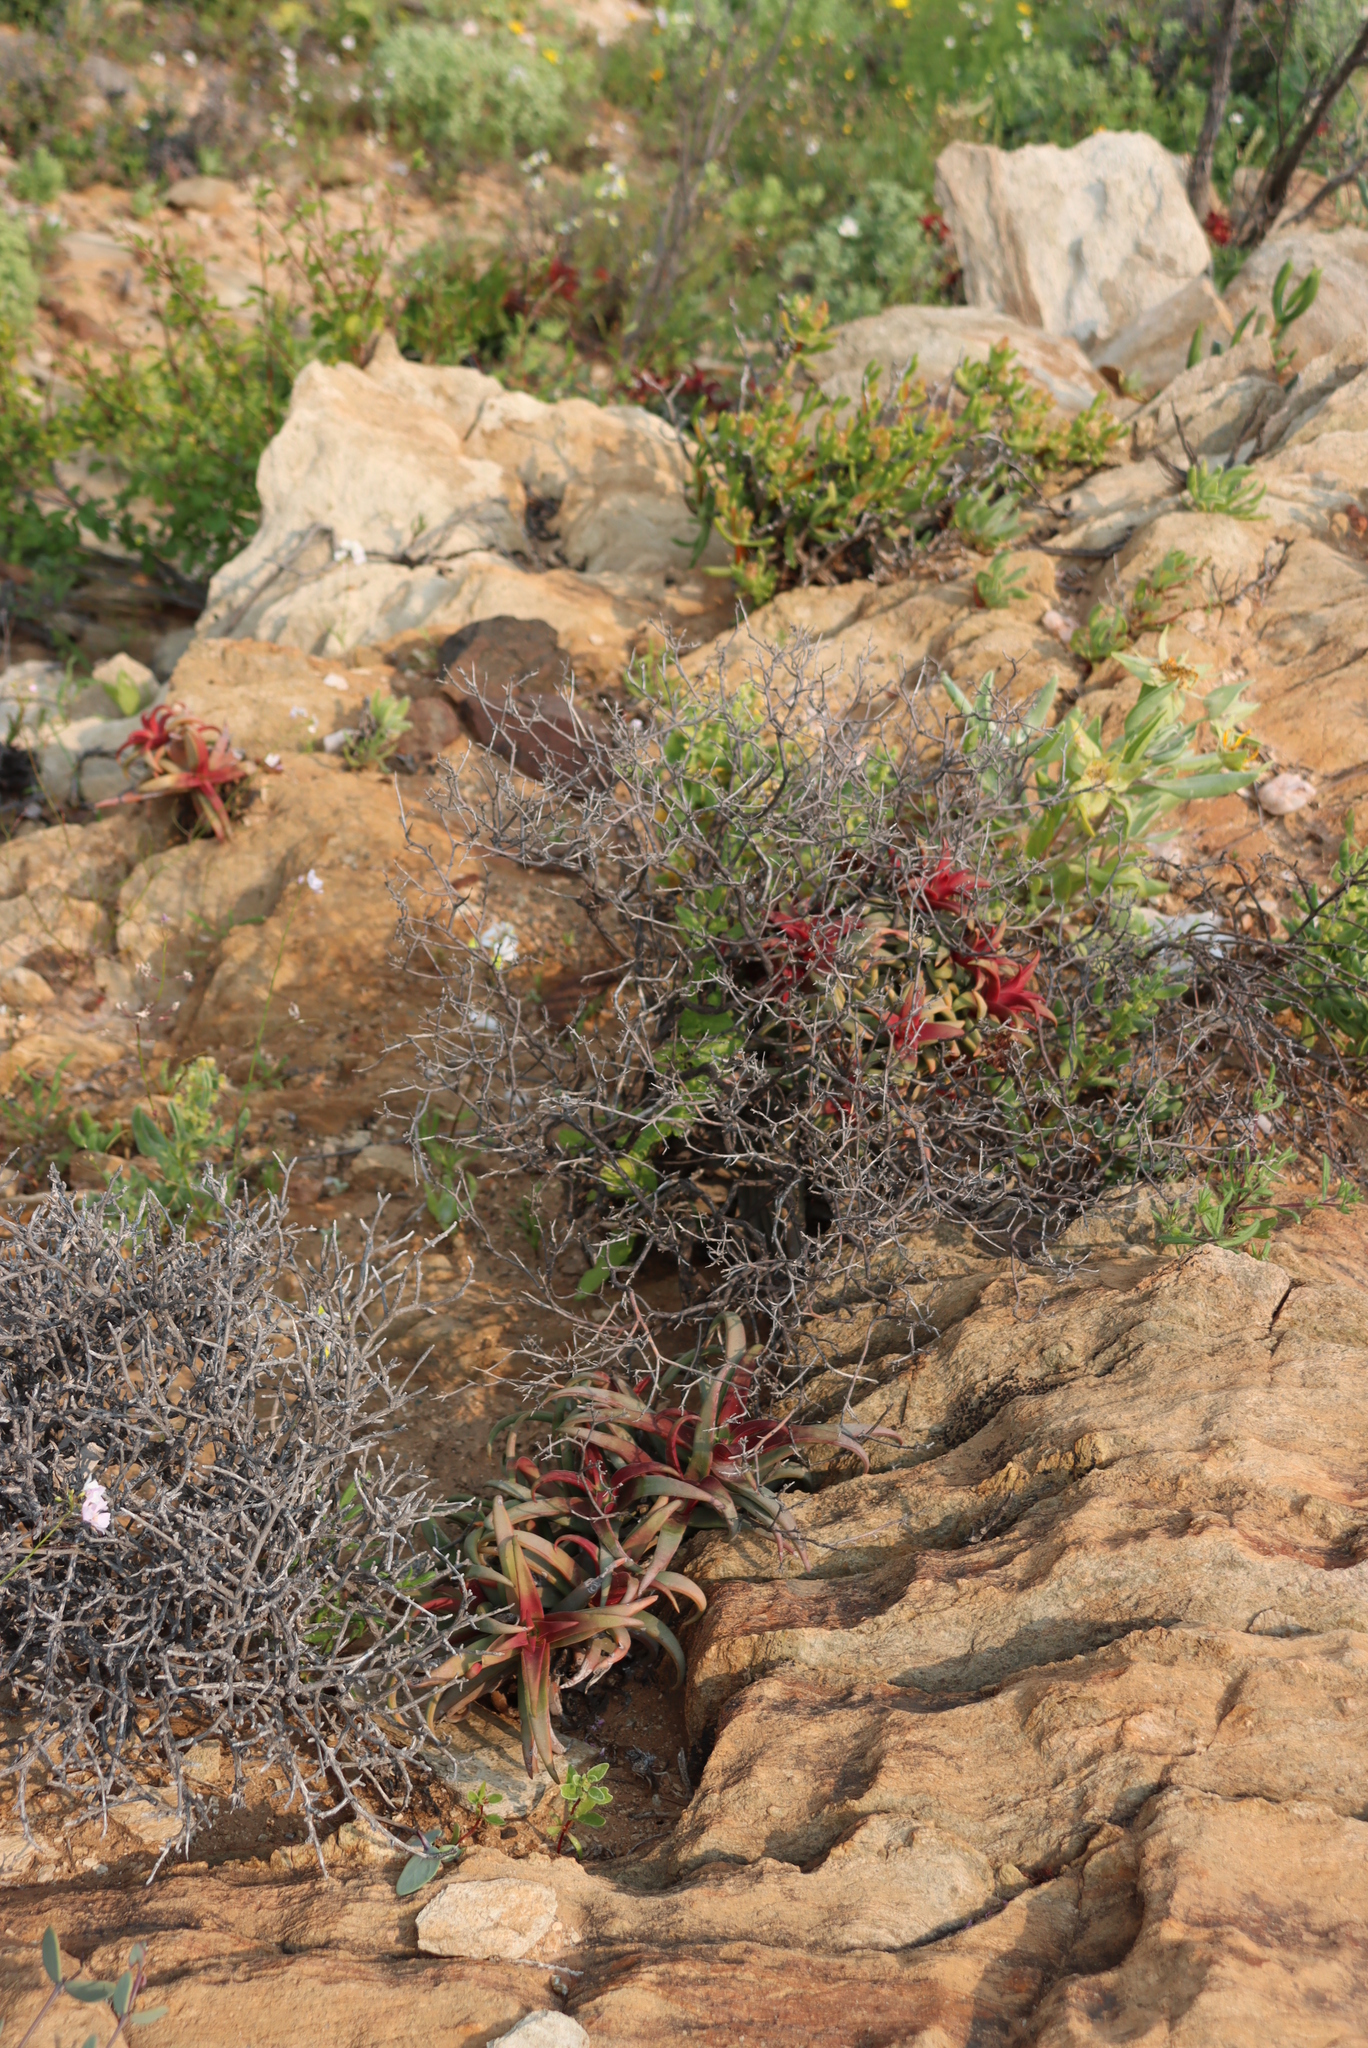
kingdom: Plantae
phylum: Tracheophyta
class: Magnoliopsida
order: Saxifragales
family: Crassulaceae
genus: Crassula
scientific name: Crassula fusca
